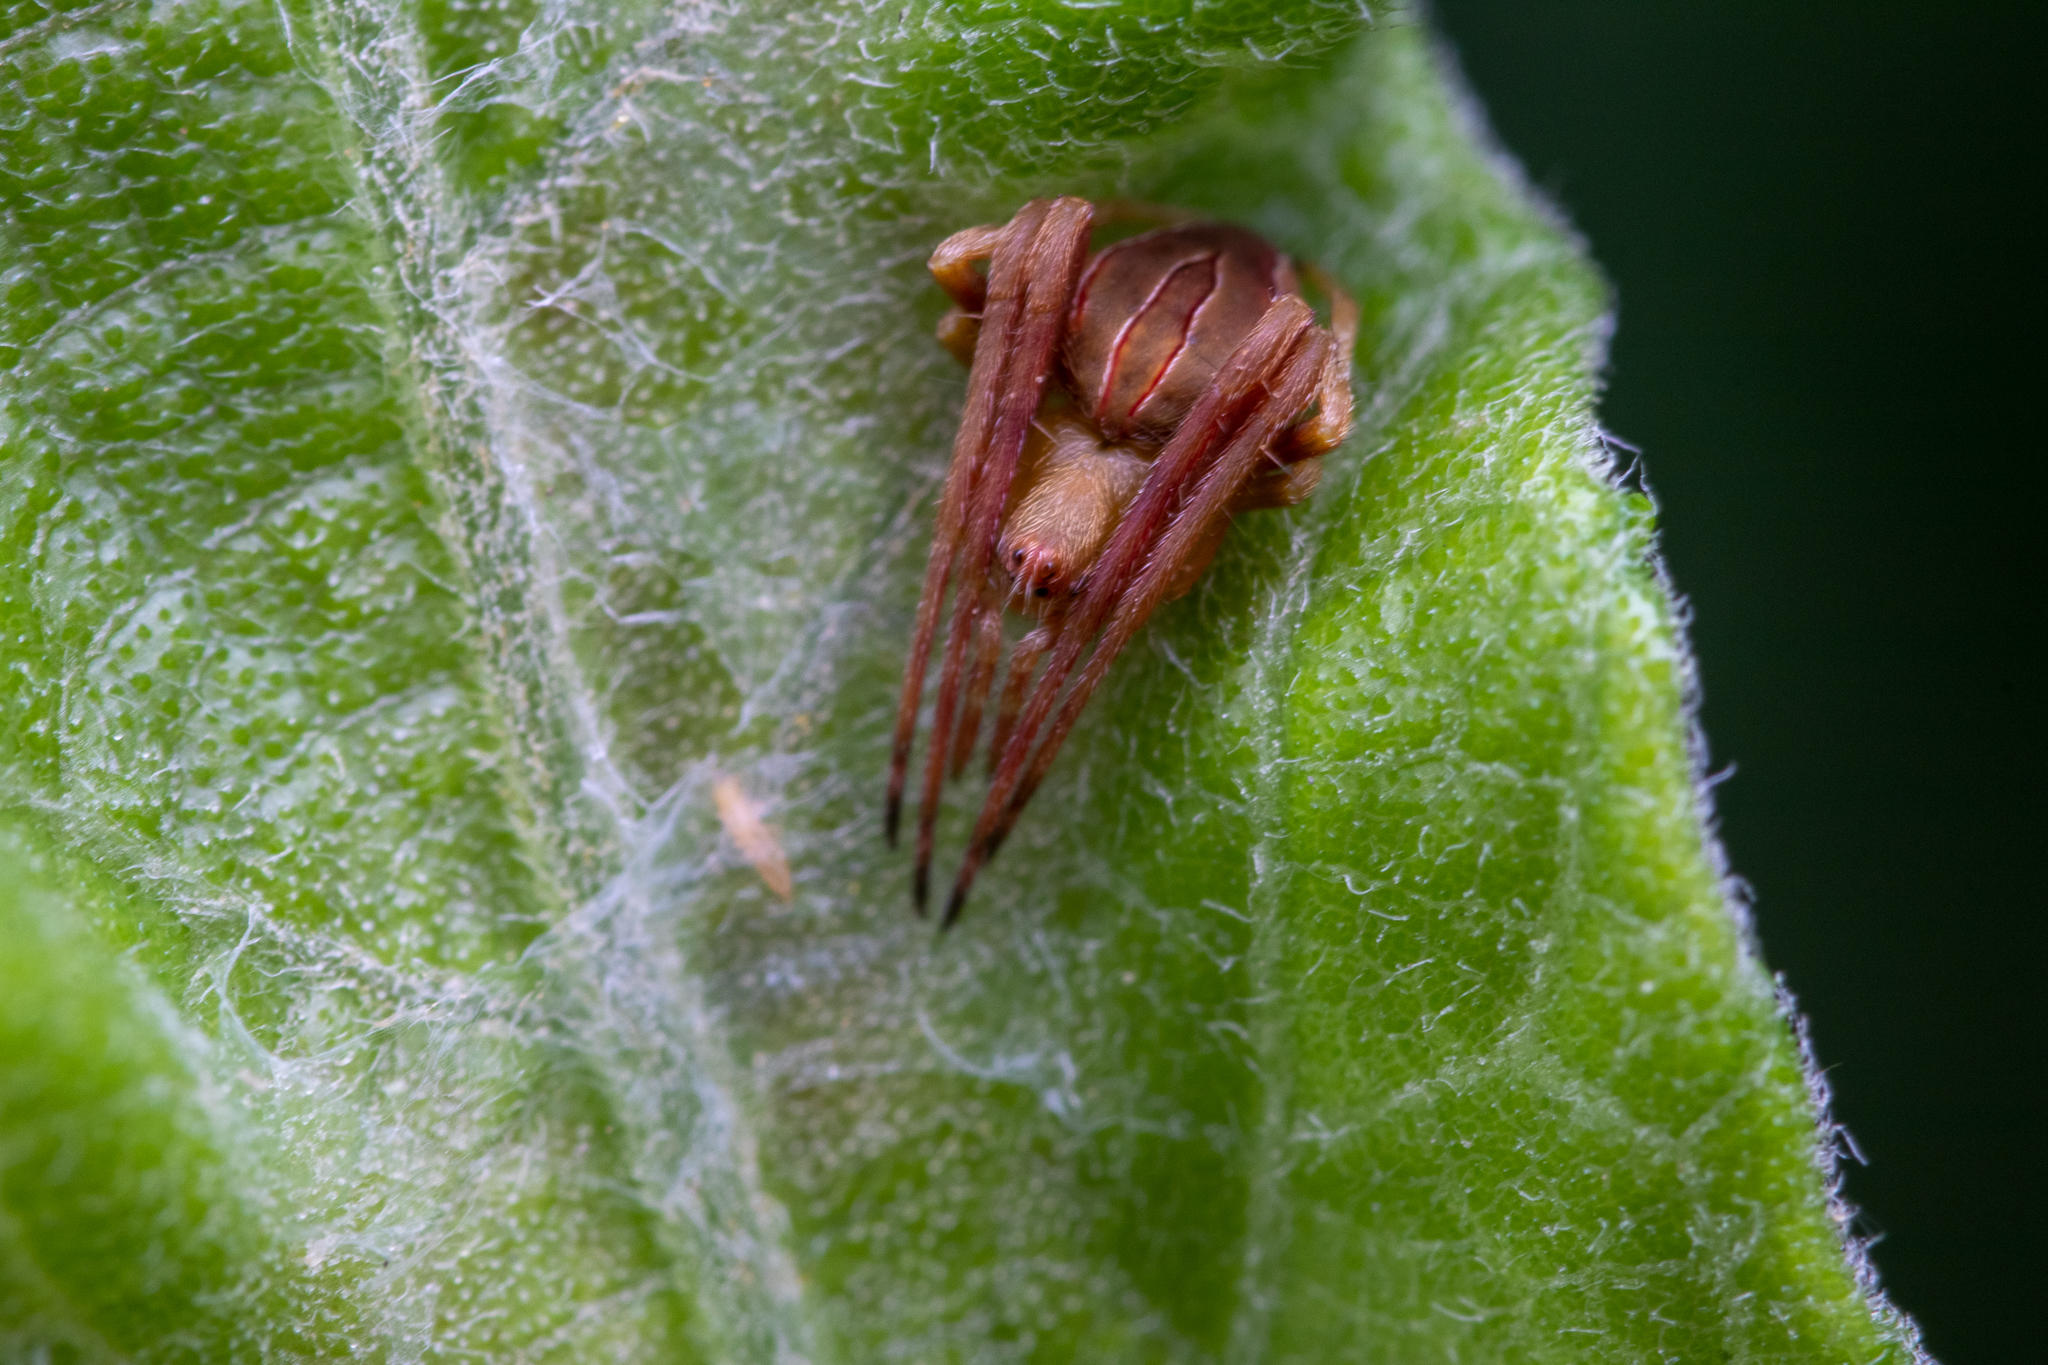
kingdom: Animalia
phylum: Arthropoda
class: Arachnida
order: Araneae
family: Araneidae
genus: Acacesia
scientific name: Acacesia hamata
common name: Orb weavers
